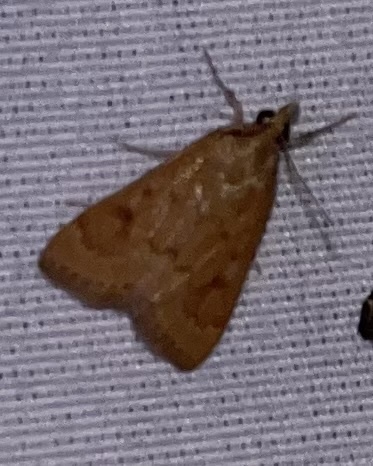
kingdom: Animalia
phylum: Arthropoda
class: Insecta
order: Lepidoptera
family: Crambidae
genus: Achyra
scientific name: Achyra rantalis
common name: Garden webworm
